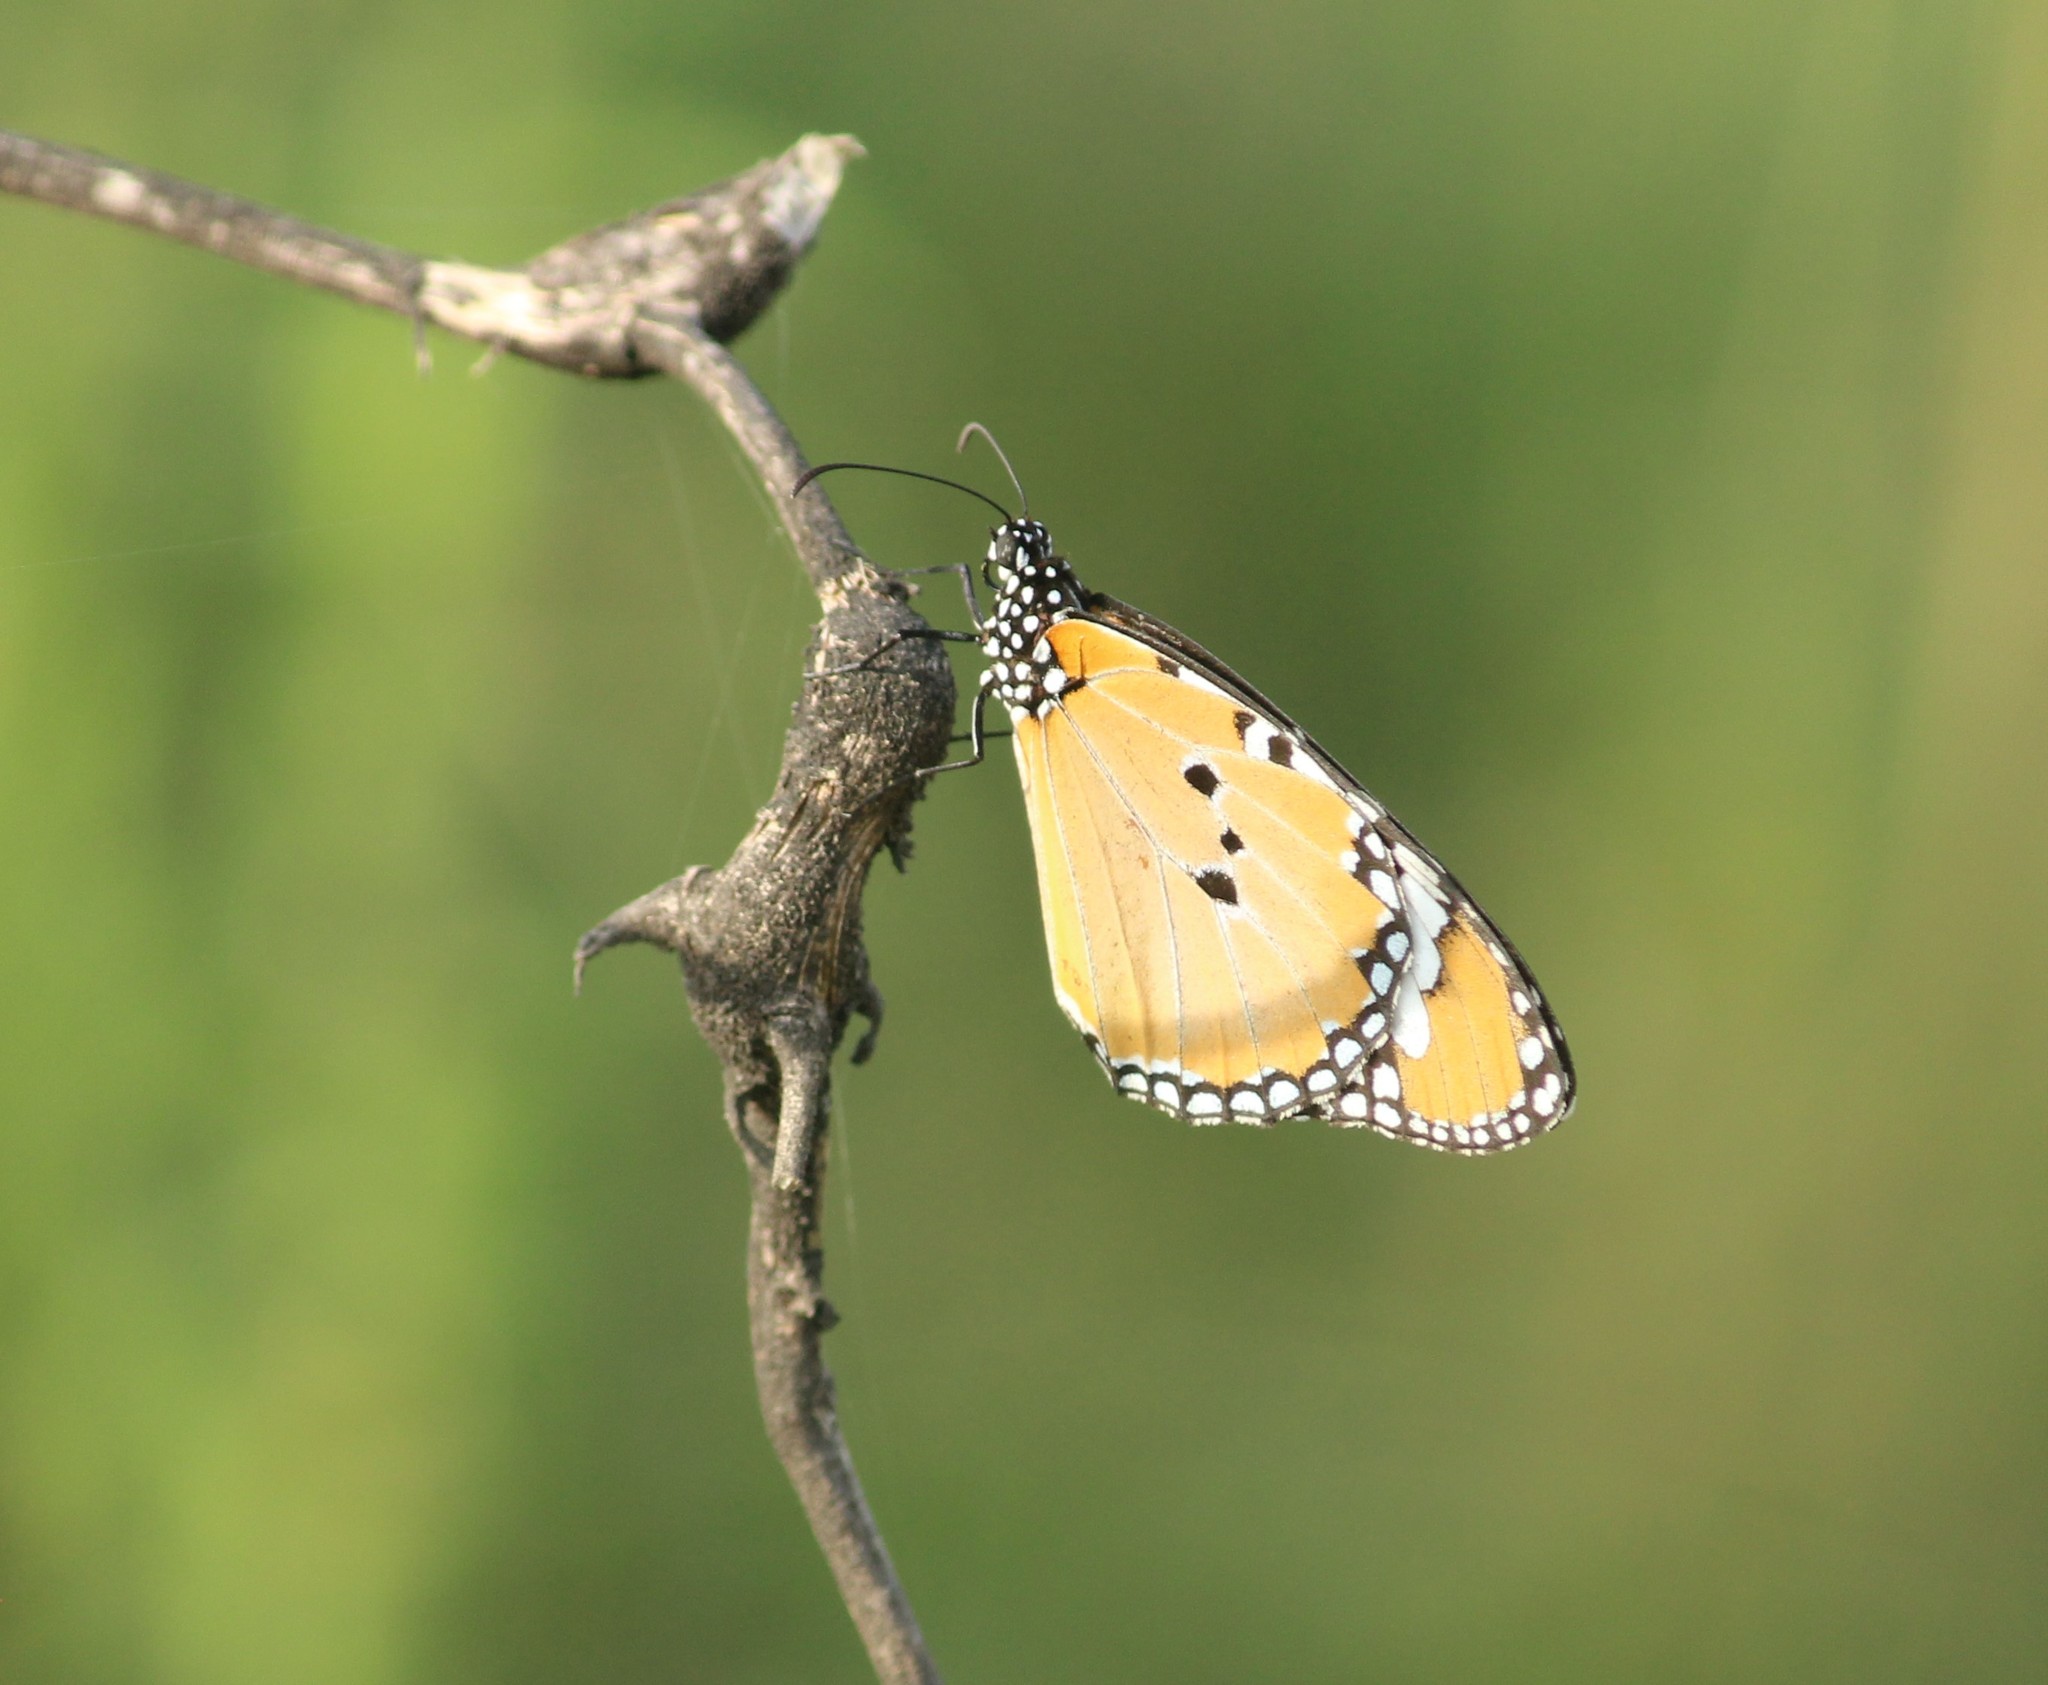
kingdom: Animalia
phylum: Arthropoda
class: Insecta
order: Lepidoptera
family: Nymphalidae
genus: Danaus
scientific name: Danaus chrysippus
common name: Plain tiger
